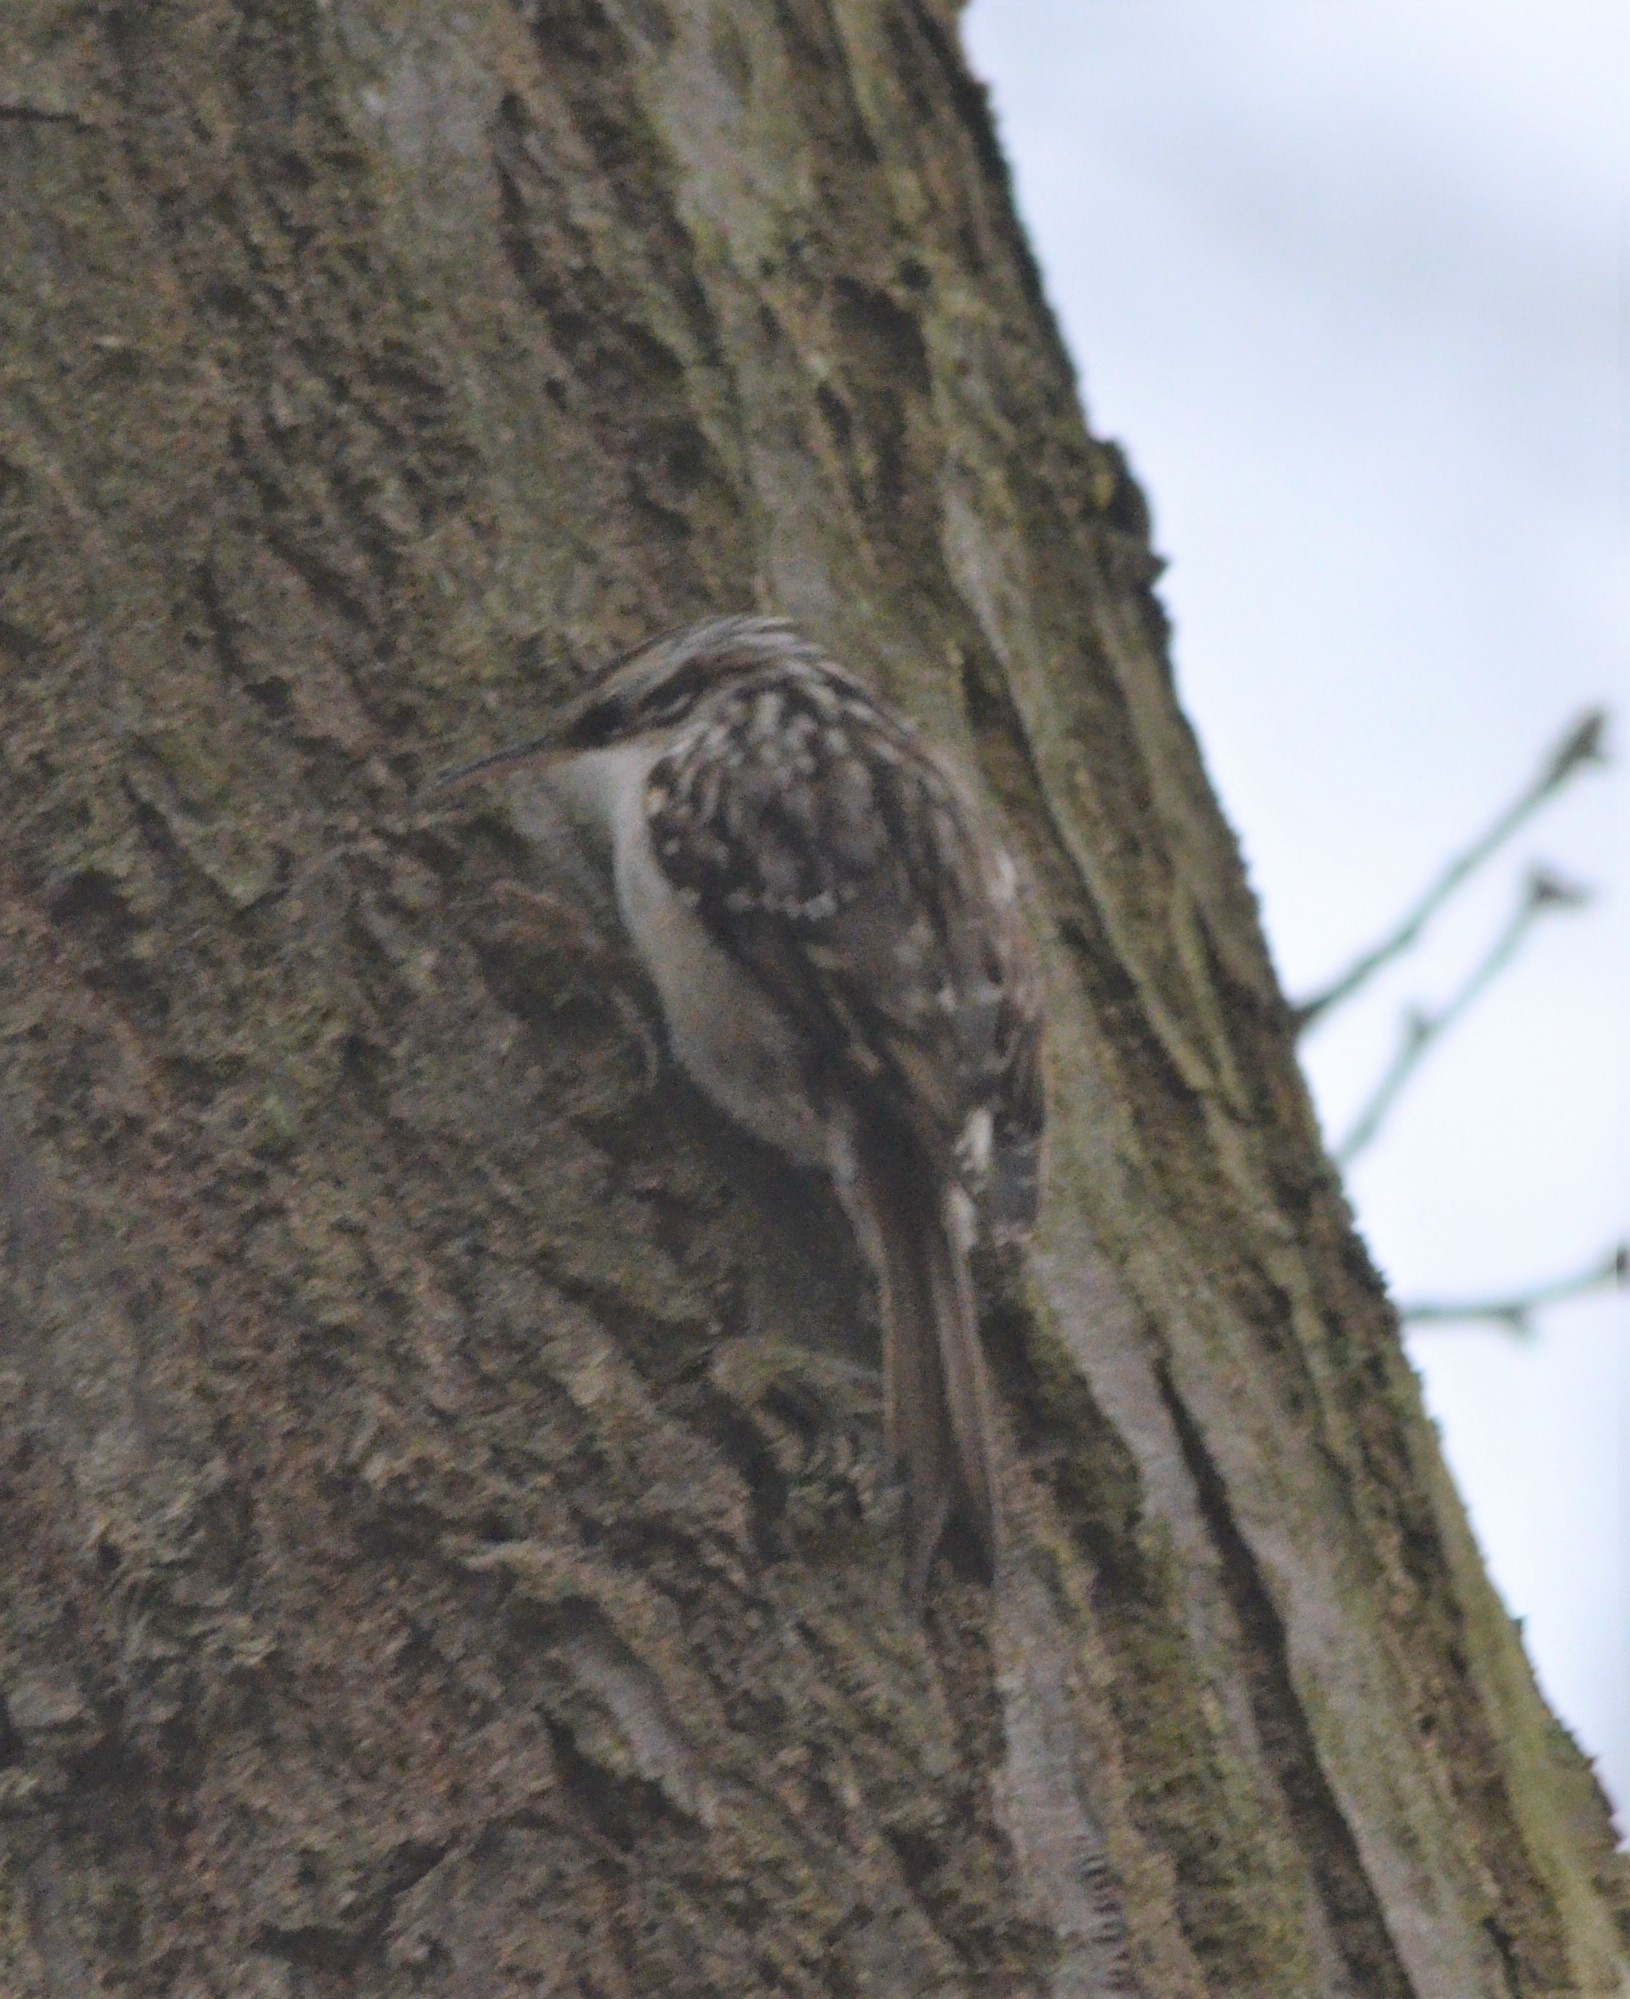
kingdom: Animalia
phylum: Chordata
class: Aves
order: Passeriformes
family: Certhiidae
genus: Certhia
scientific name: Certhia brachydactyla
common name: Short-toed treecreeper
